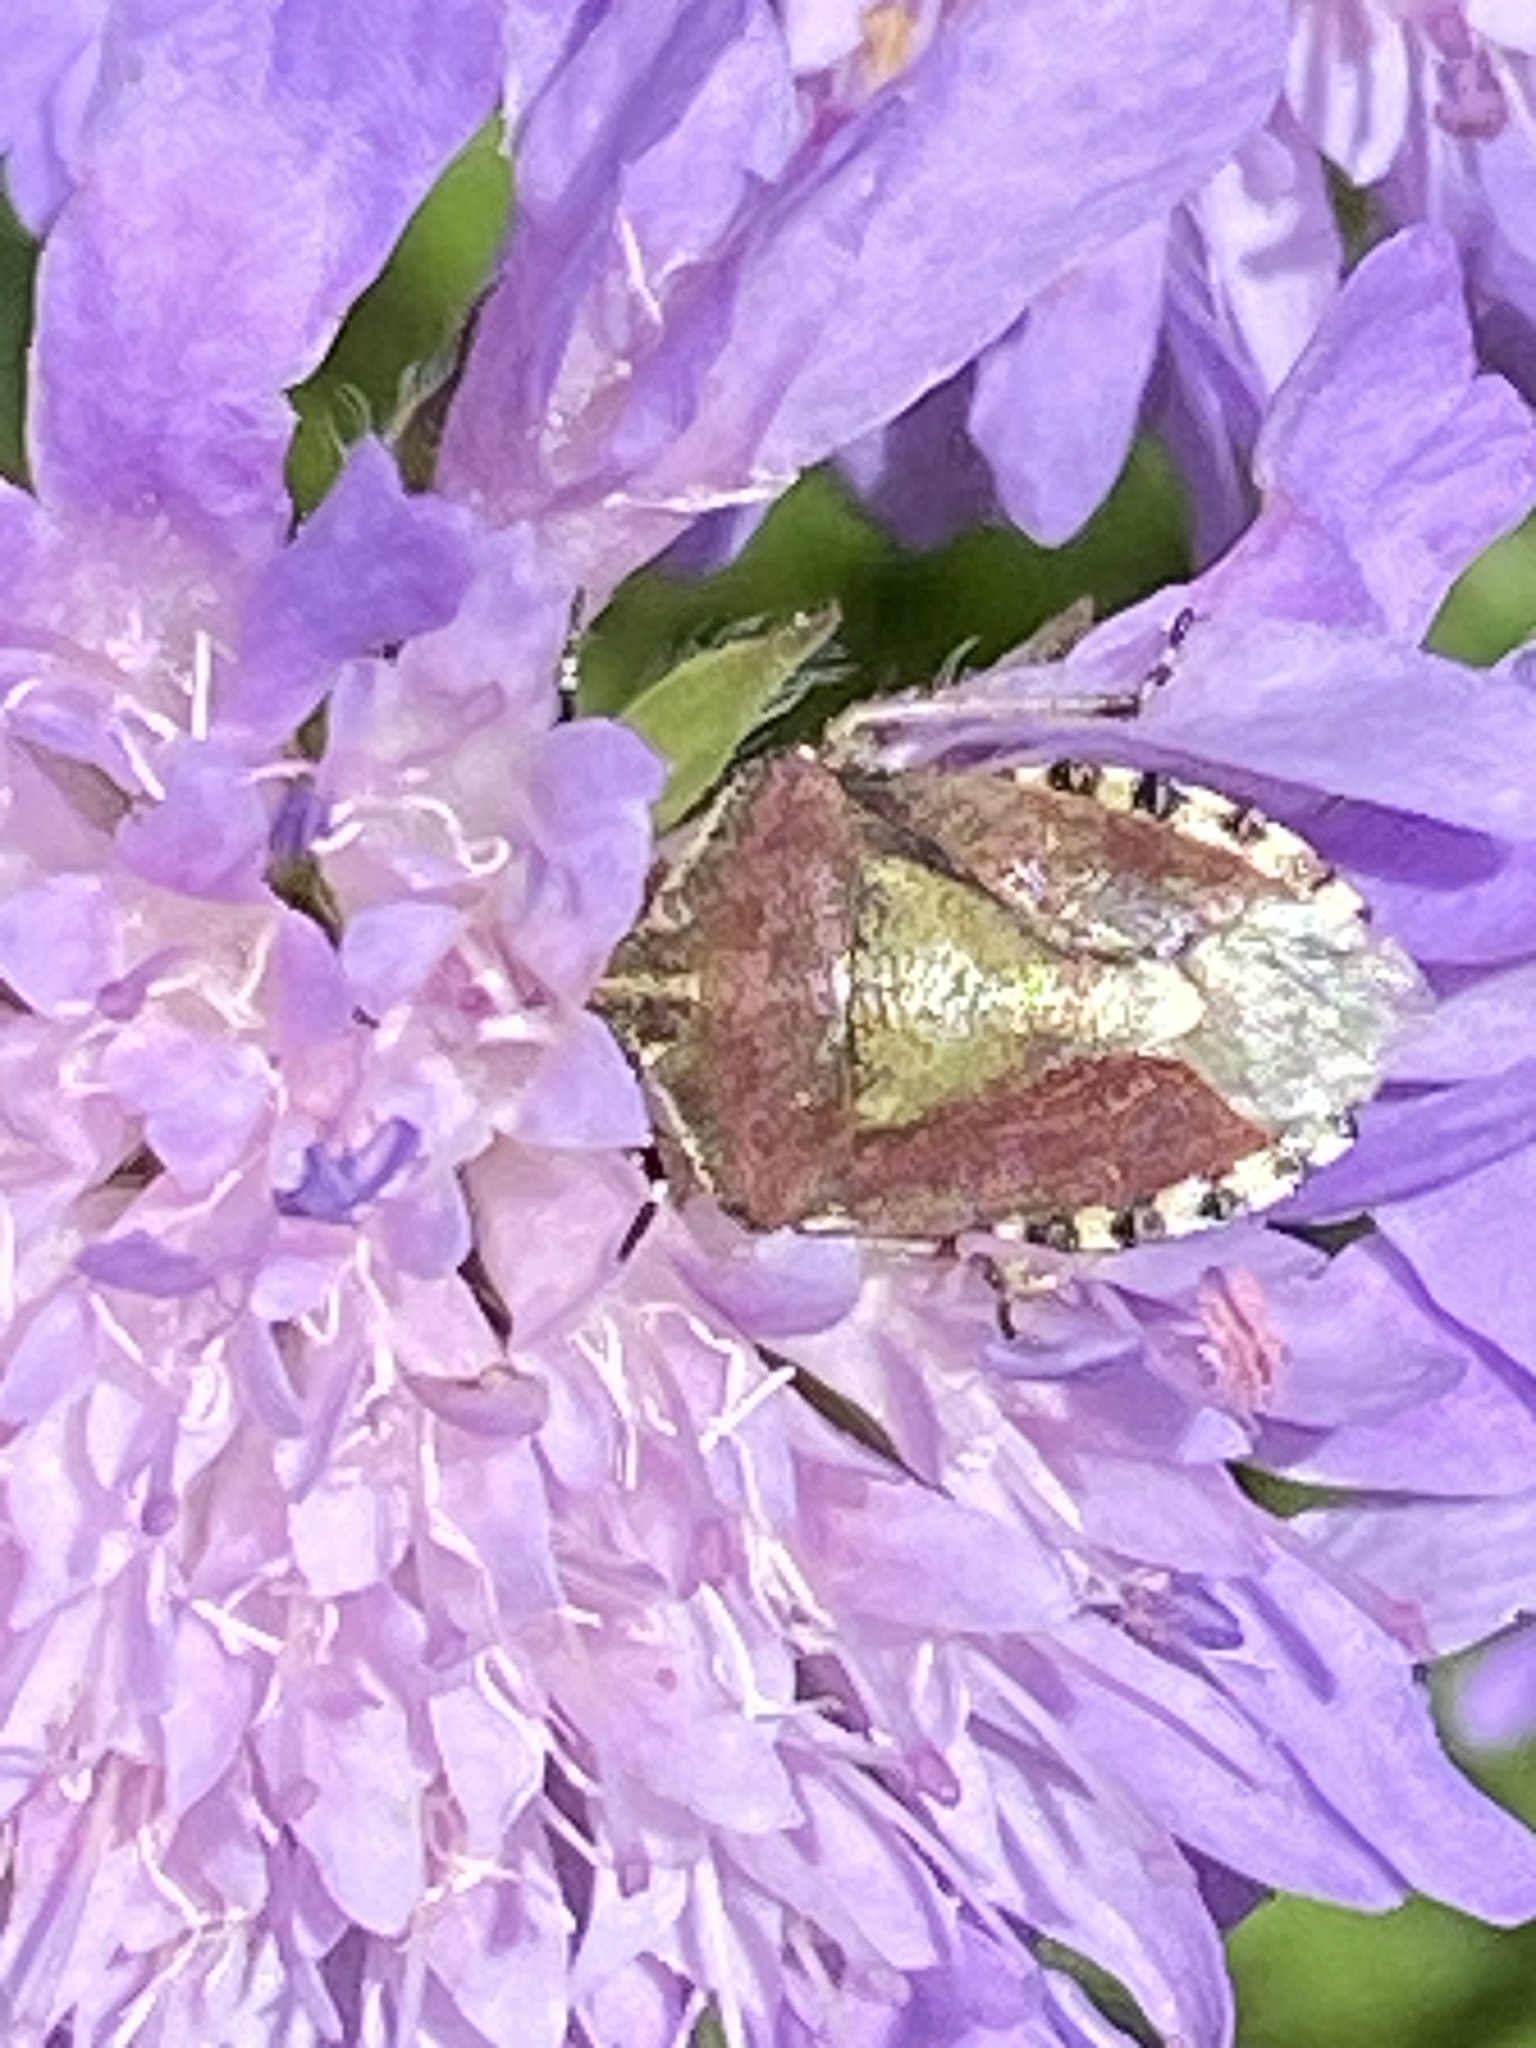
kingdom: Animalia
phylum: Arthropoda
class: Insecta
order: Hemiptera
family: Pentatomidae
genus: Dolycoris
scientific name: Dolycoris baccarum
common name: Sloe bug
